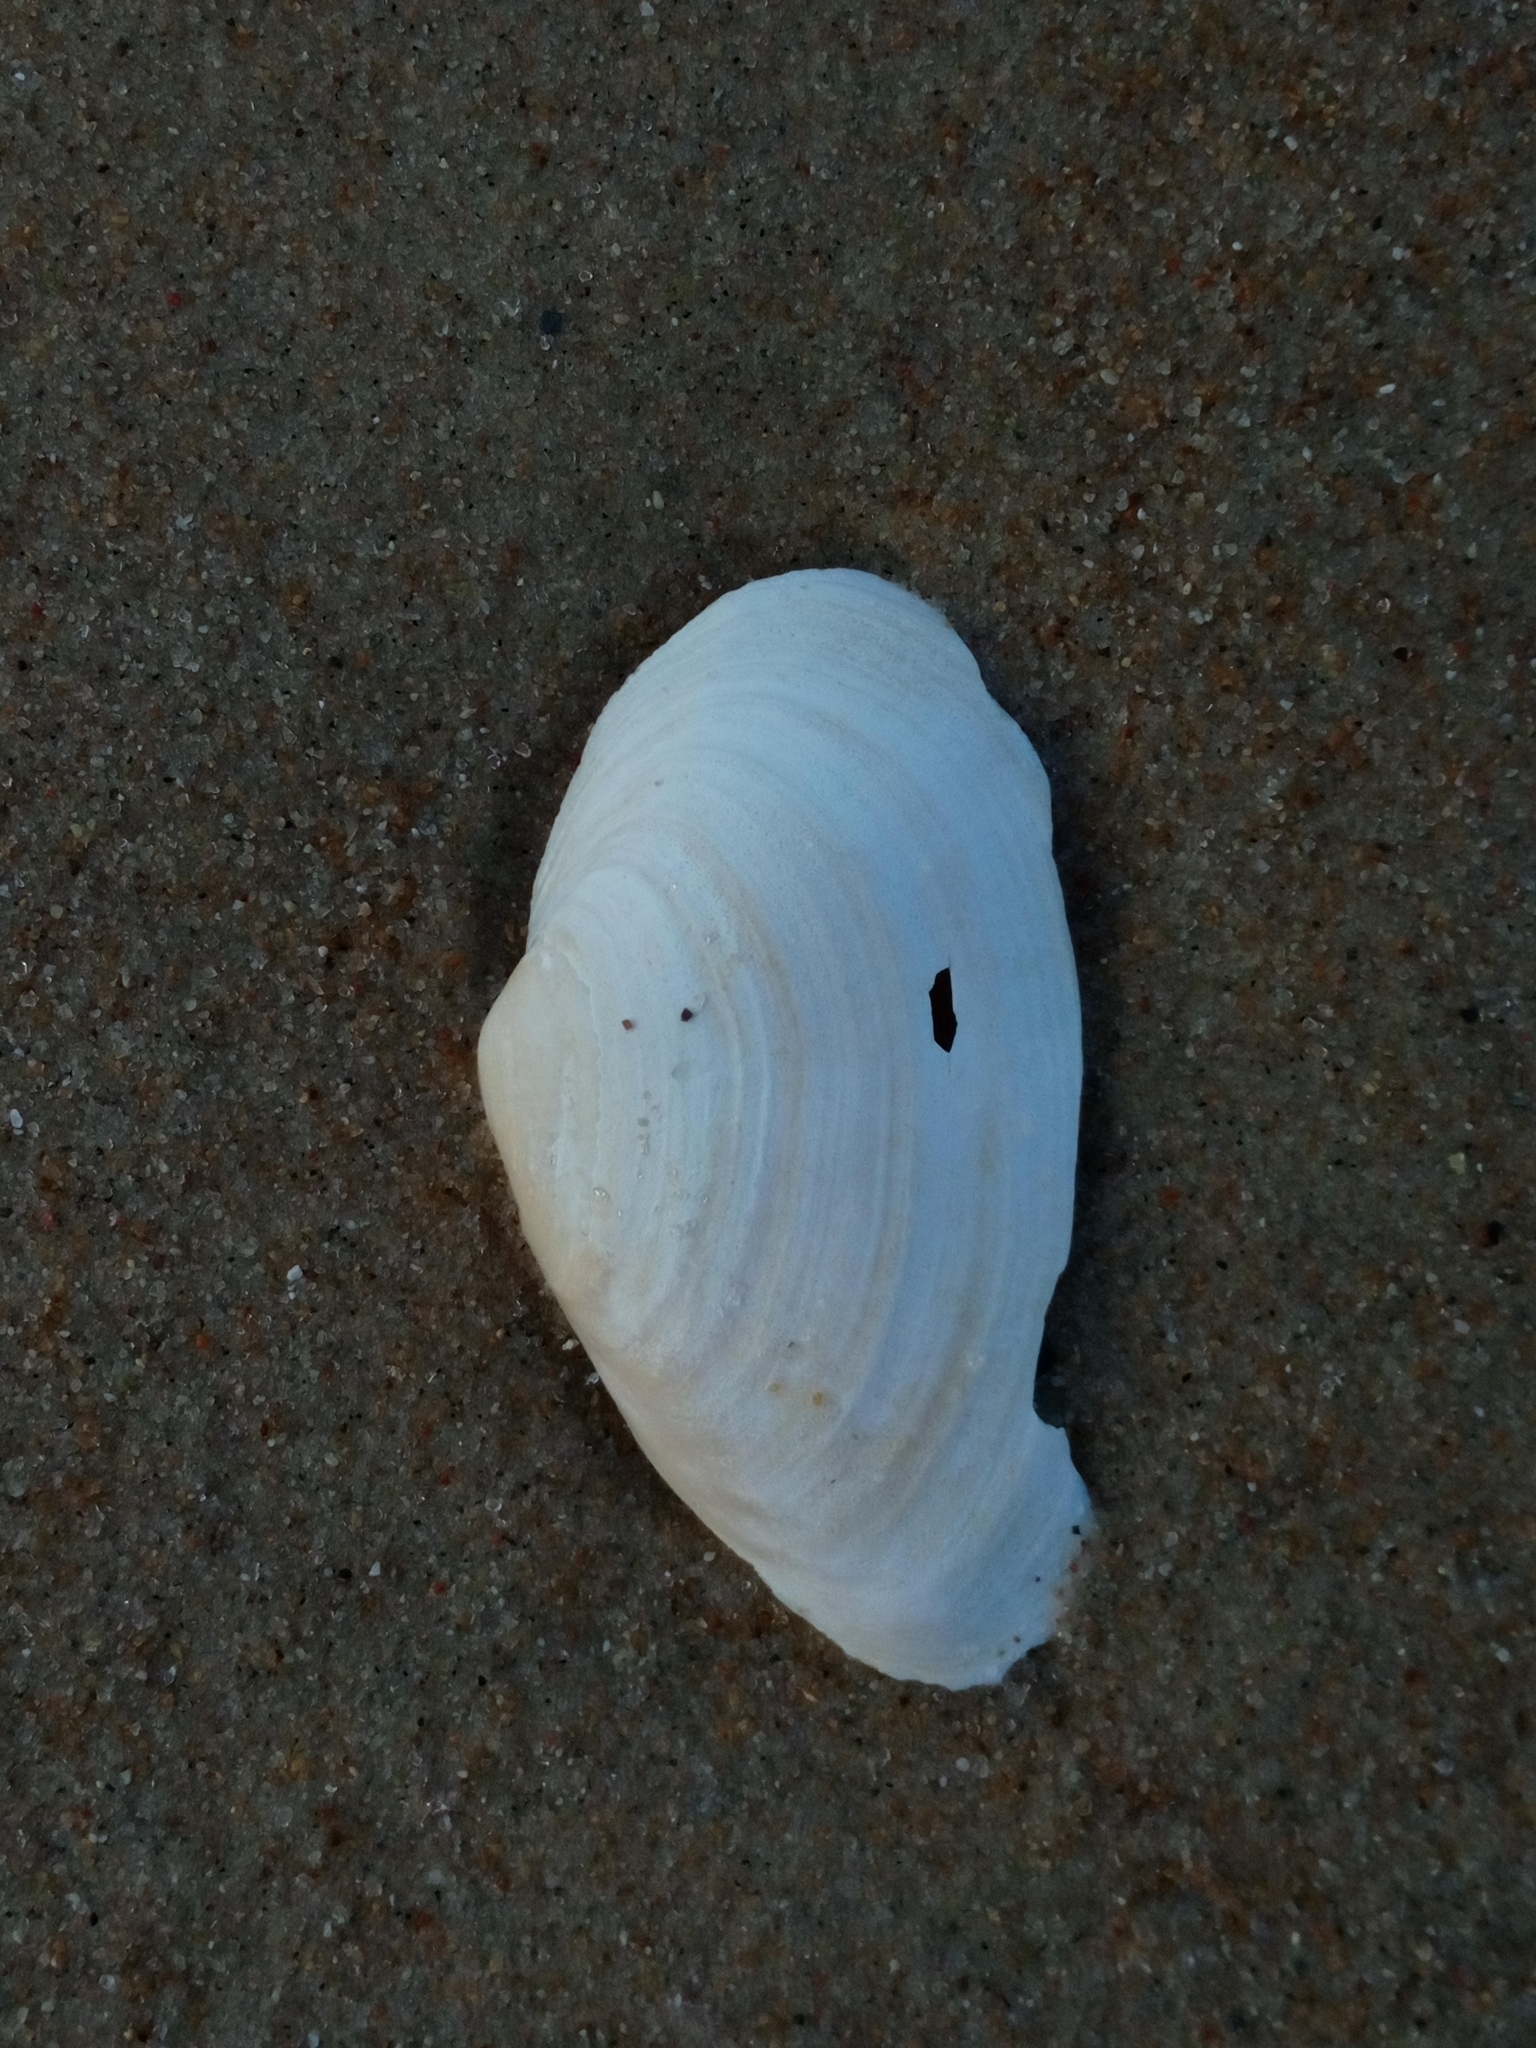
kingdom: Animalia
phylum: Mollusca
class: Bivalvia
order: Myida
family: Myidae
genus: Mya
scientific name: Mya arenaria
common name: Soft-shelled clam
